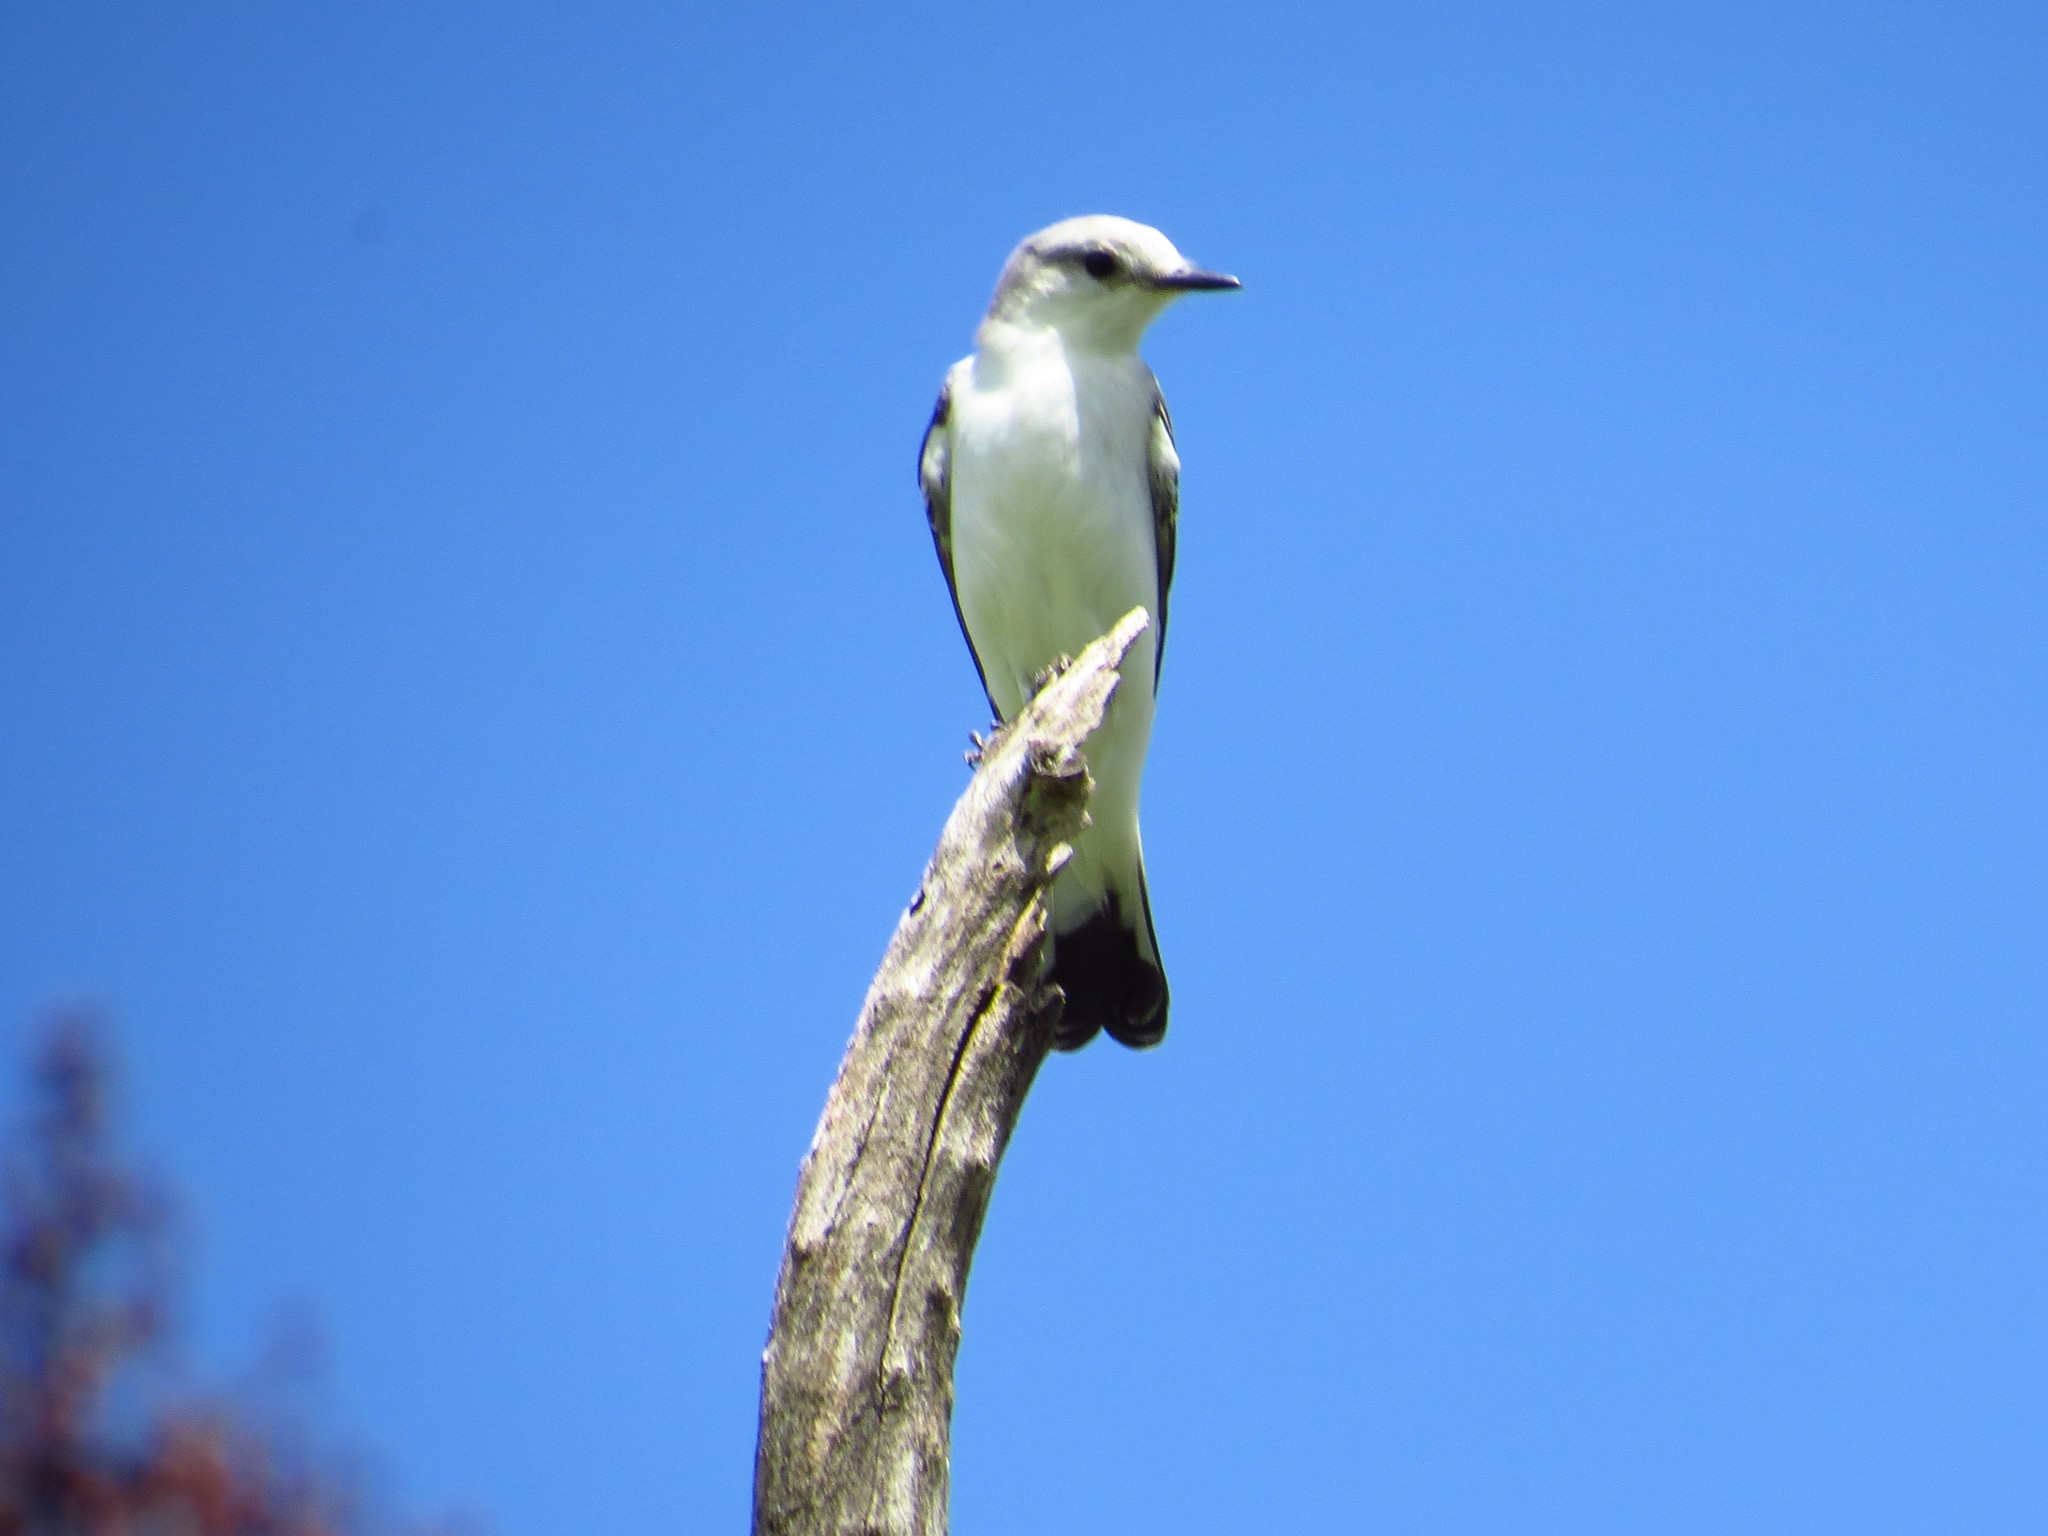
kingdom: Animalia
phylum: Chordata
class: Aves
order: Passeriformes
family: Tyrannidae
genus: Xolmis
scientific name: Xolmis velatus
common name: White-rumped monjita
